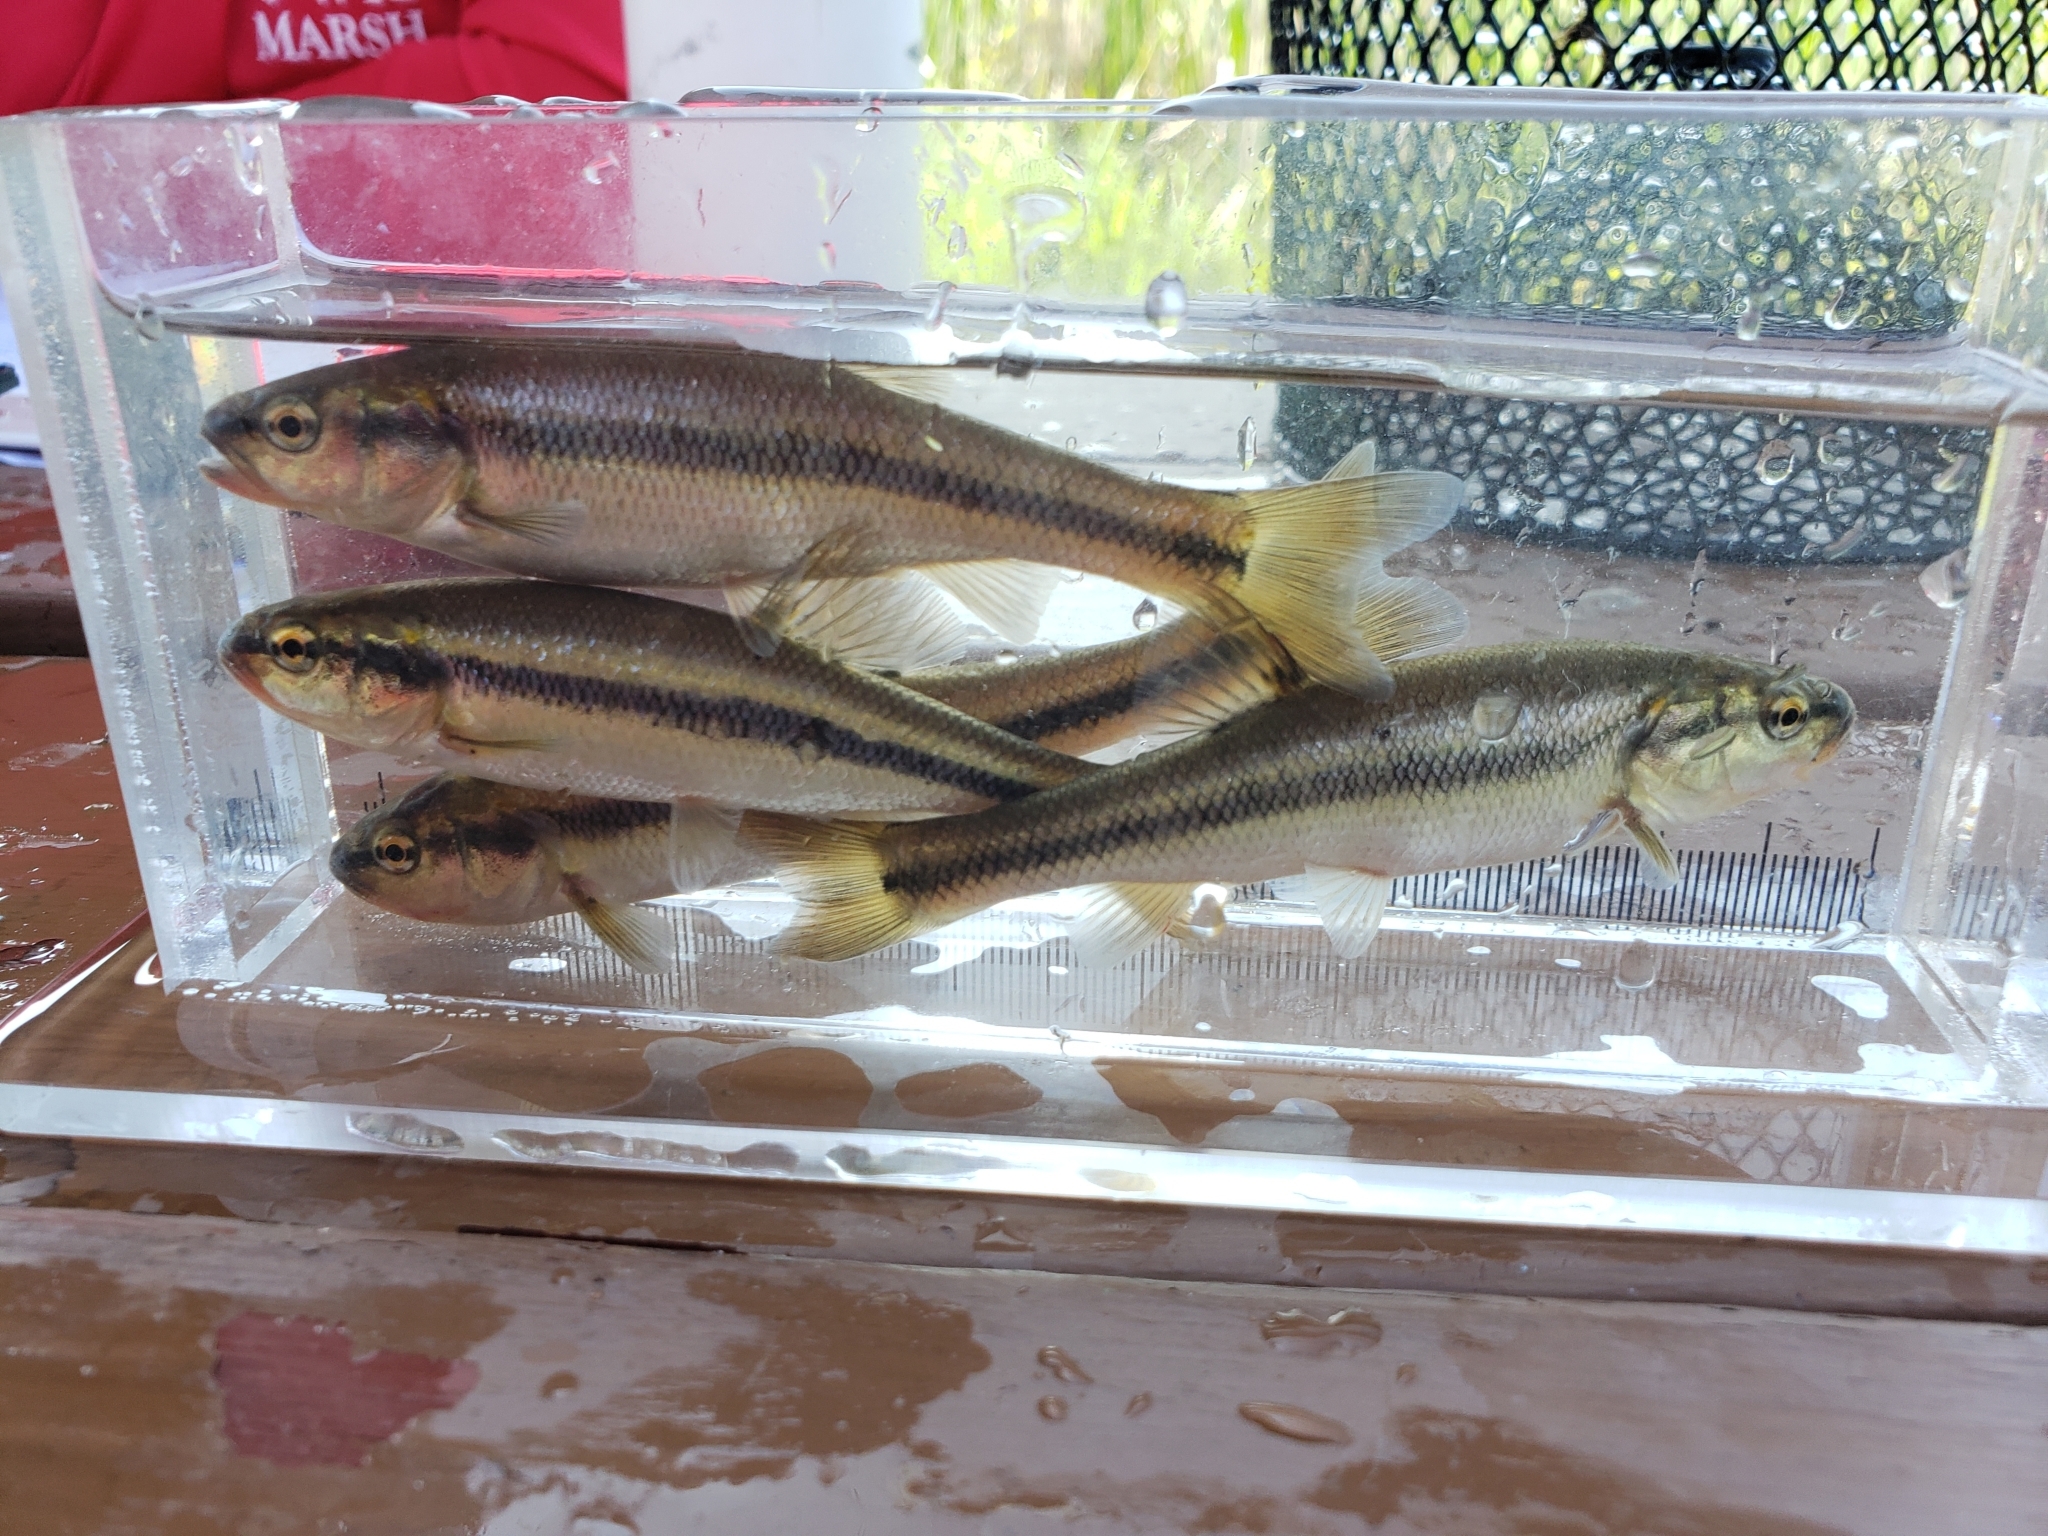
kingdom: Animalia
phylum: Chordata
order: Cypriniformes
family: Cyprinidae
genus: Semotilus
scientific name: Semotilus atromaculatus
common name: Creek chub
